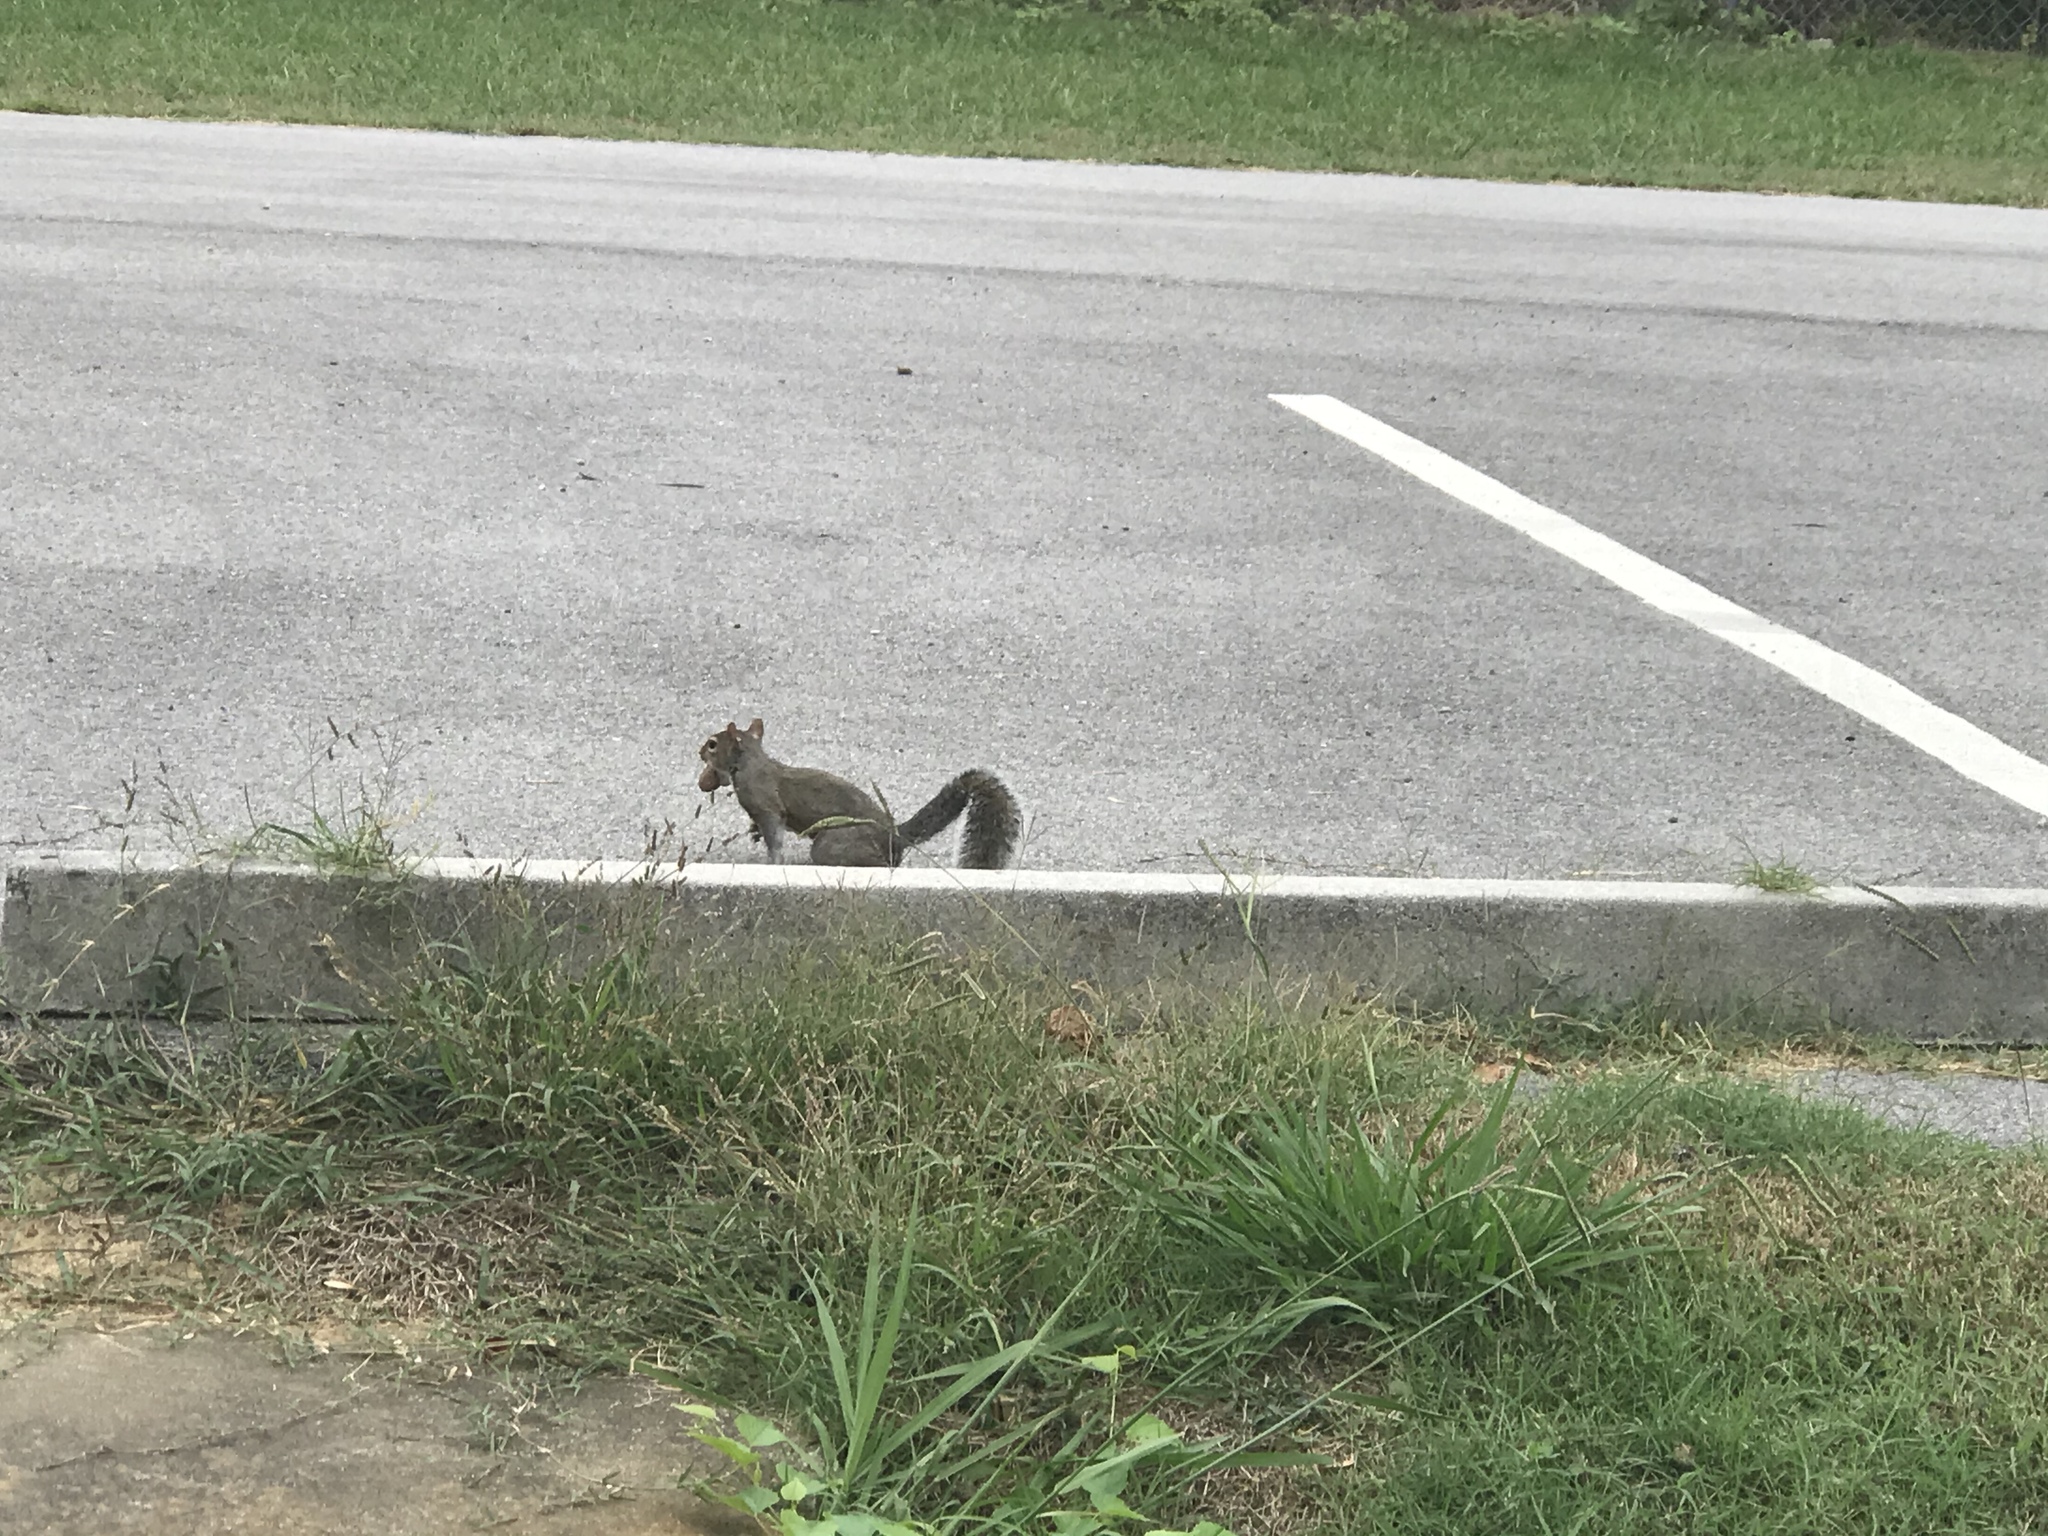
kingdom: Animalia
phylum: Chordata
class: Mammalia
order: Rodentia
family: Sciuridae
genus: Sciurus
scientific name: Sciurus carolinensis
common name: Eastern gray squirrel
